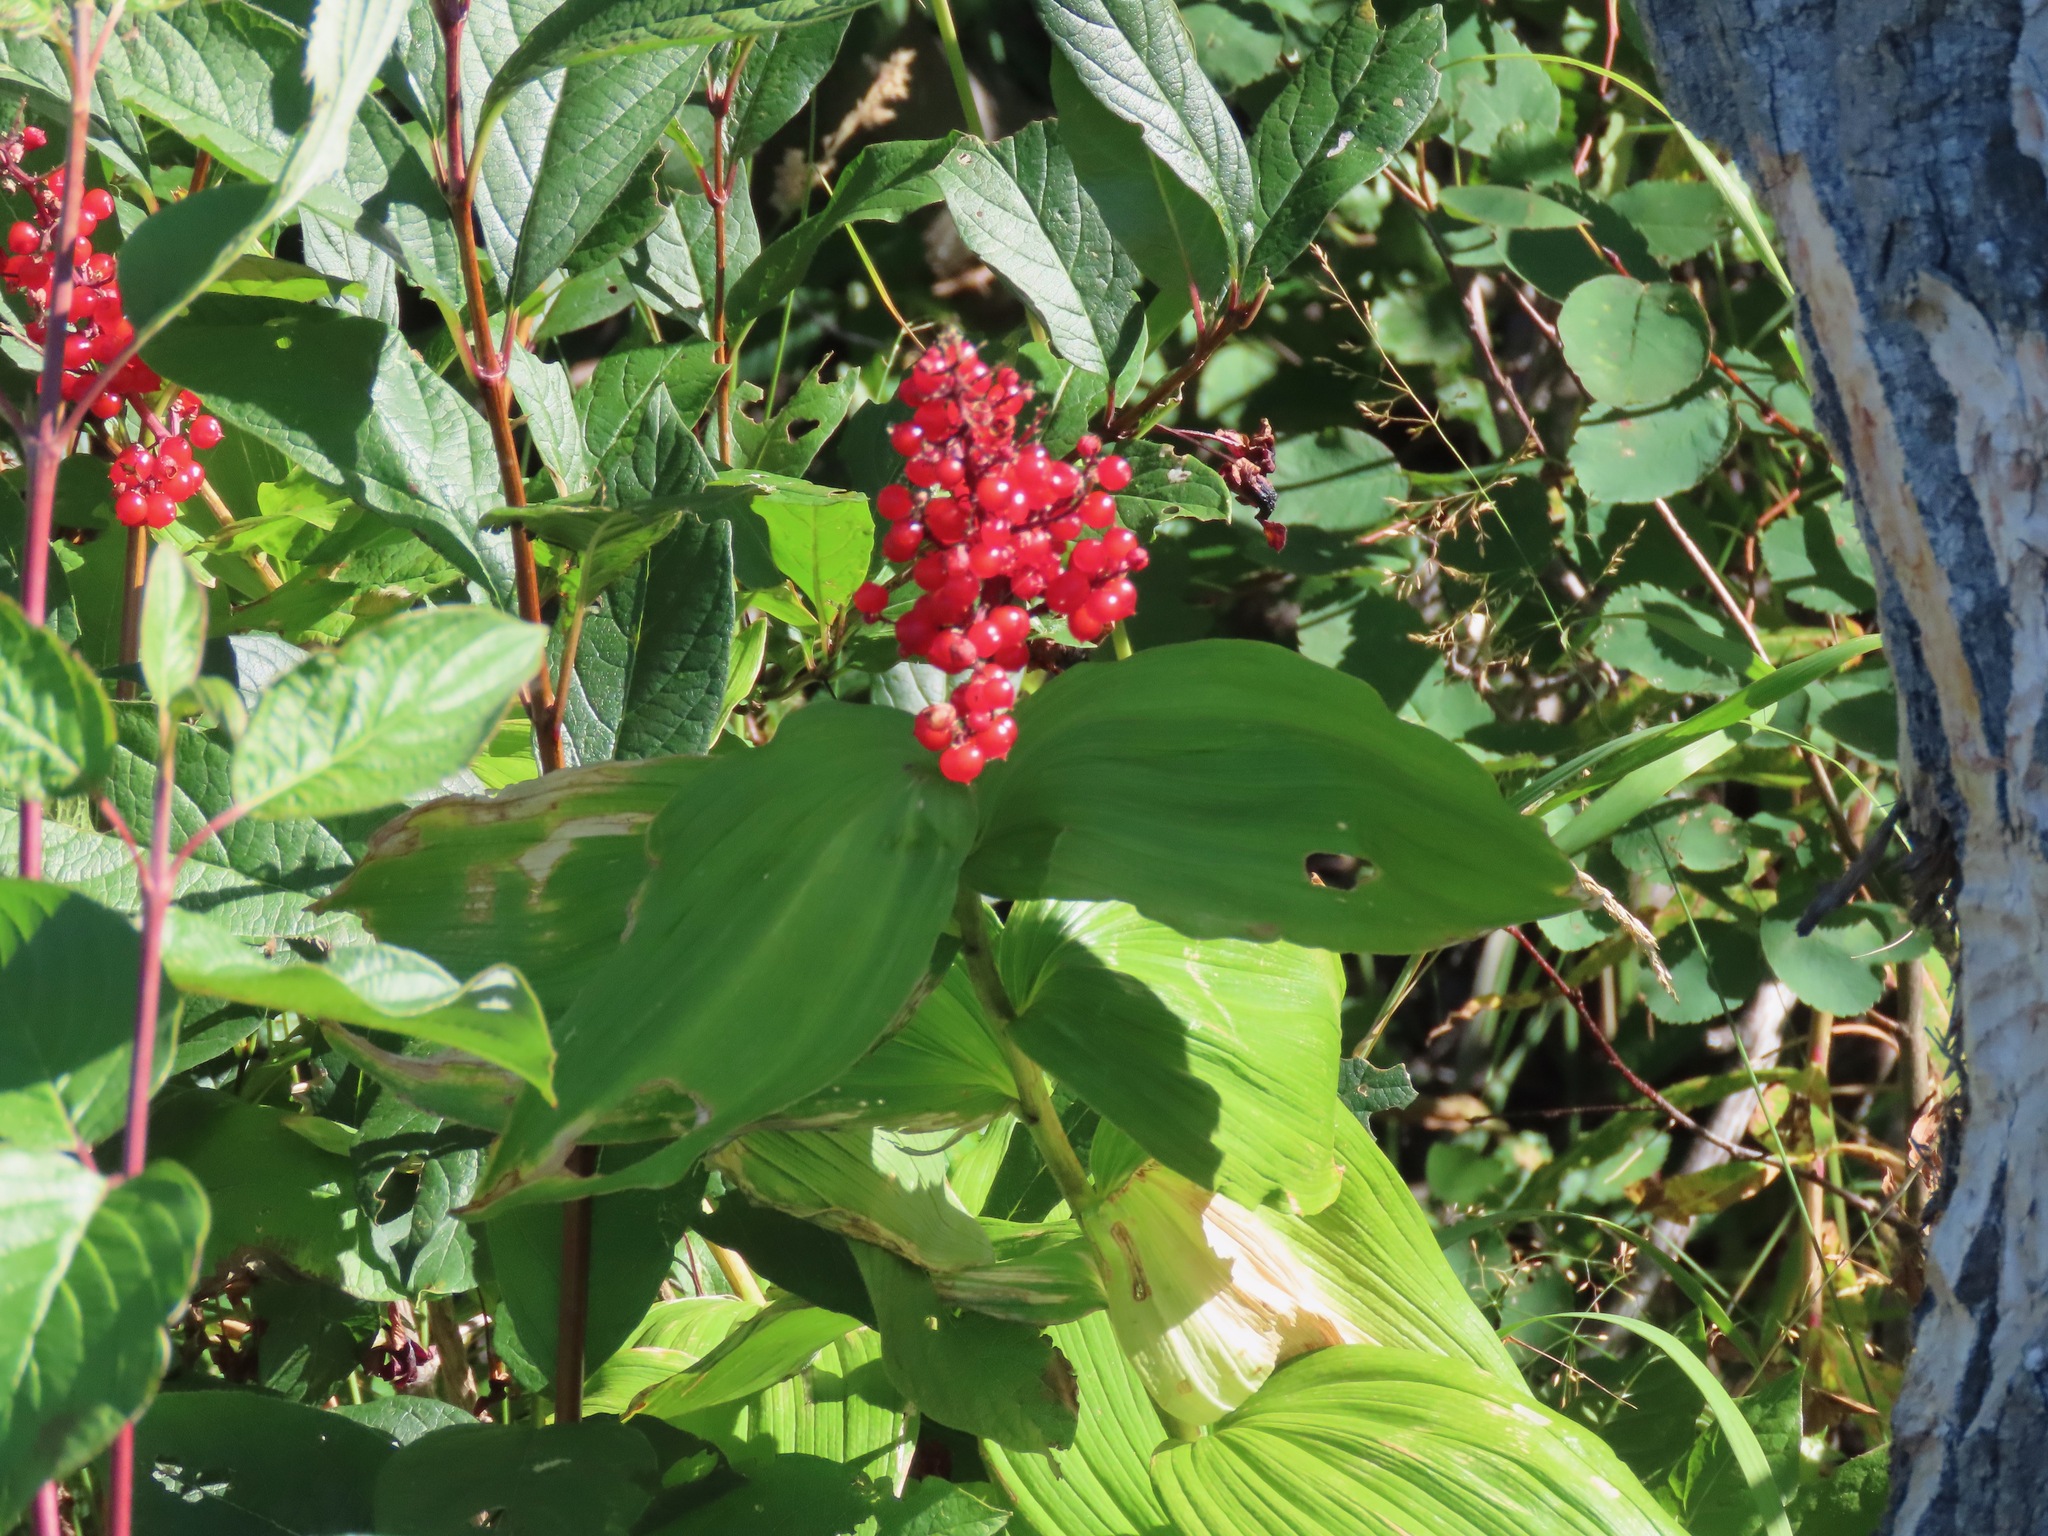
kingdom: Plantae
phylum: Tracheophyta
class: Liliopsida
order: Asparagales
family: Asparagaceae
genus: Maianthemum
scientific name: Maianthemum racemosum
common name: False spikenard
